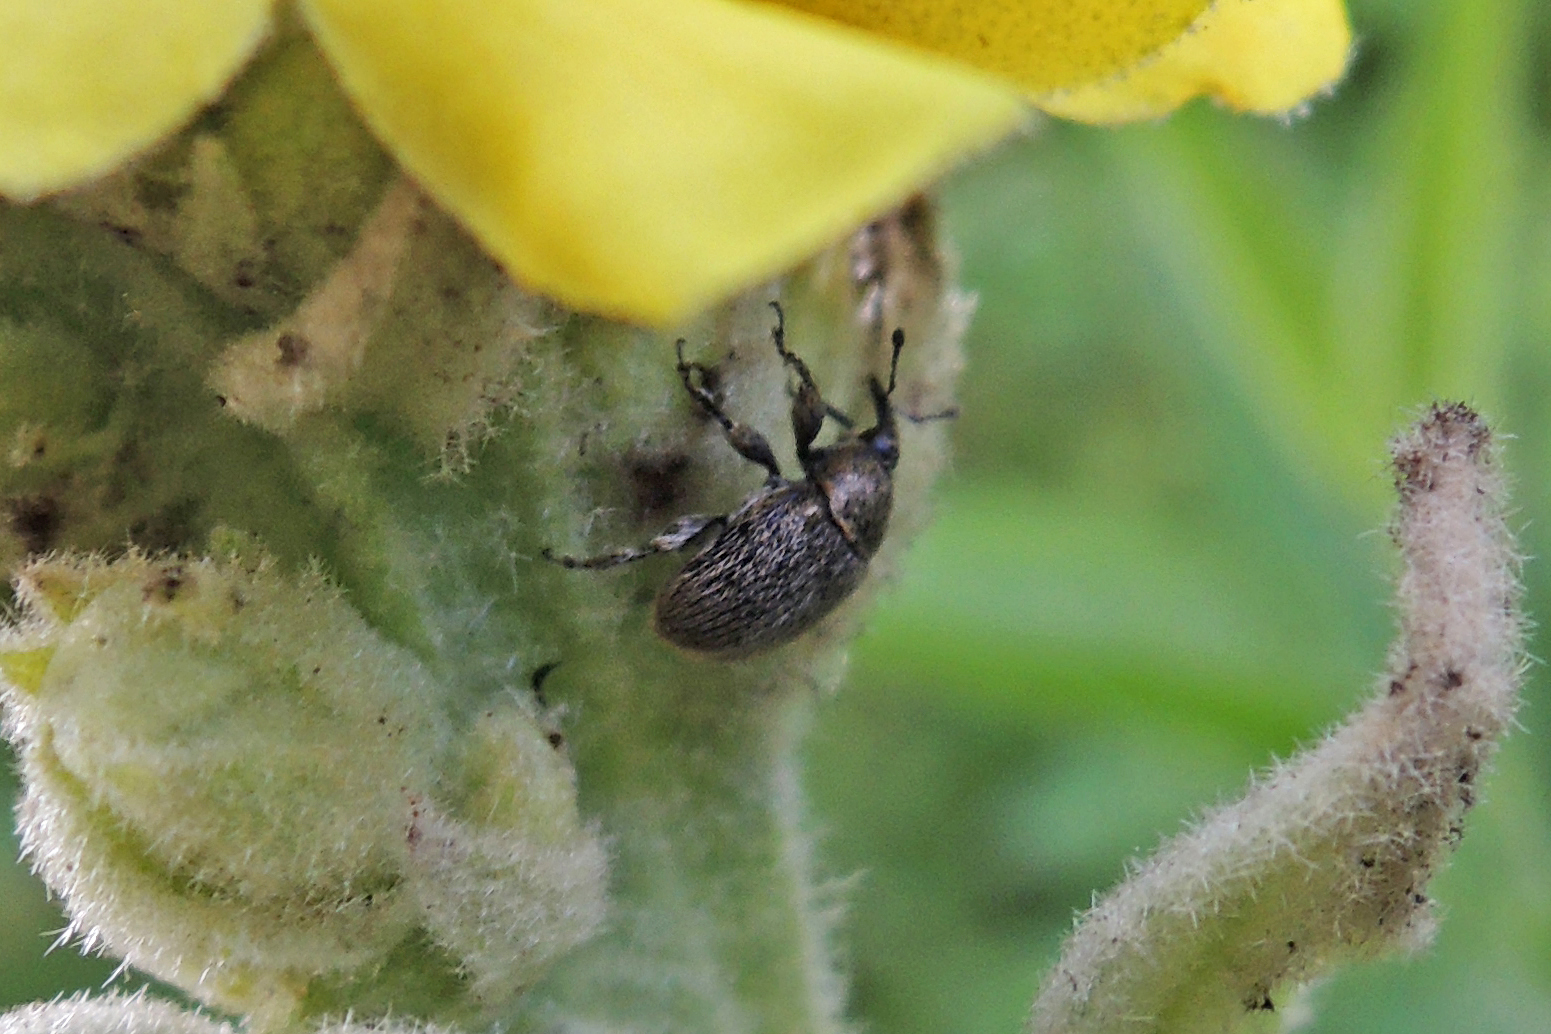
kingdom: Animalia
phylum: Arthropoda
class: Insecta
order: Coleoptera
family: Curculionidae
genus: Rhinusa
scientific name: Rhinusa tetra
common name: Weevil
